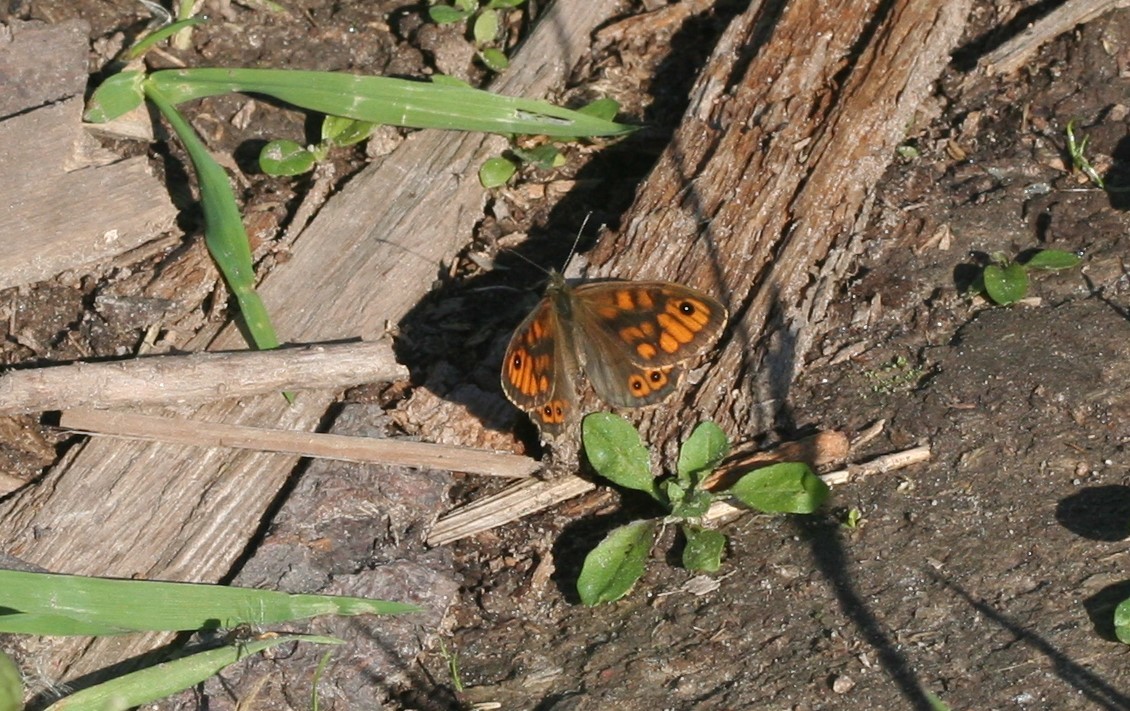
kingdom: Animalia
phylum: Arthropoda
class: Insecta
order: Lepidoptera
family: Nymphalidae
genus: Pararge
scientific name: Pararge Lasiommata megera
